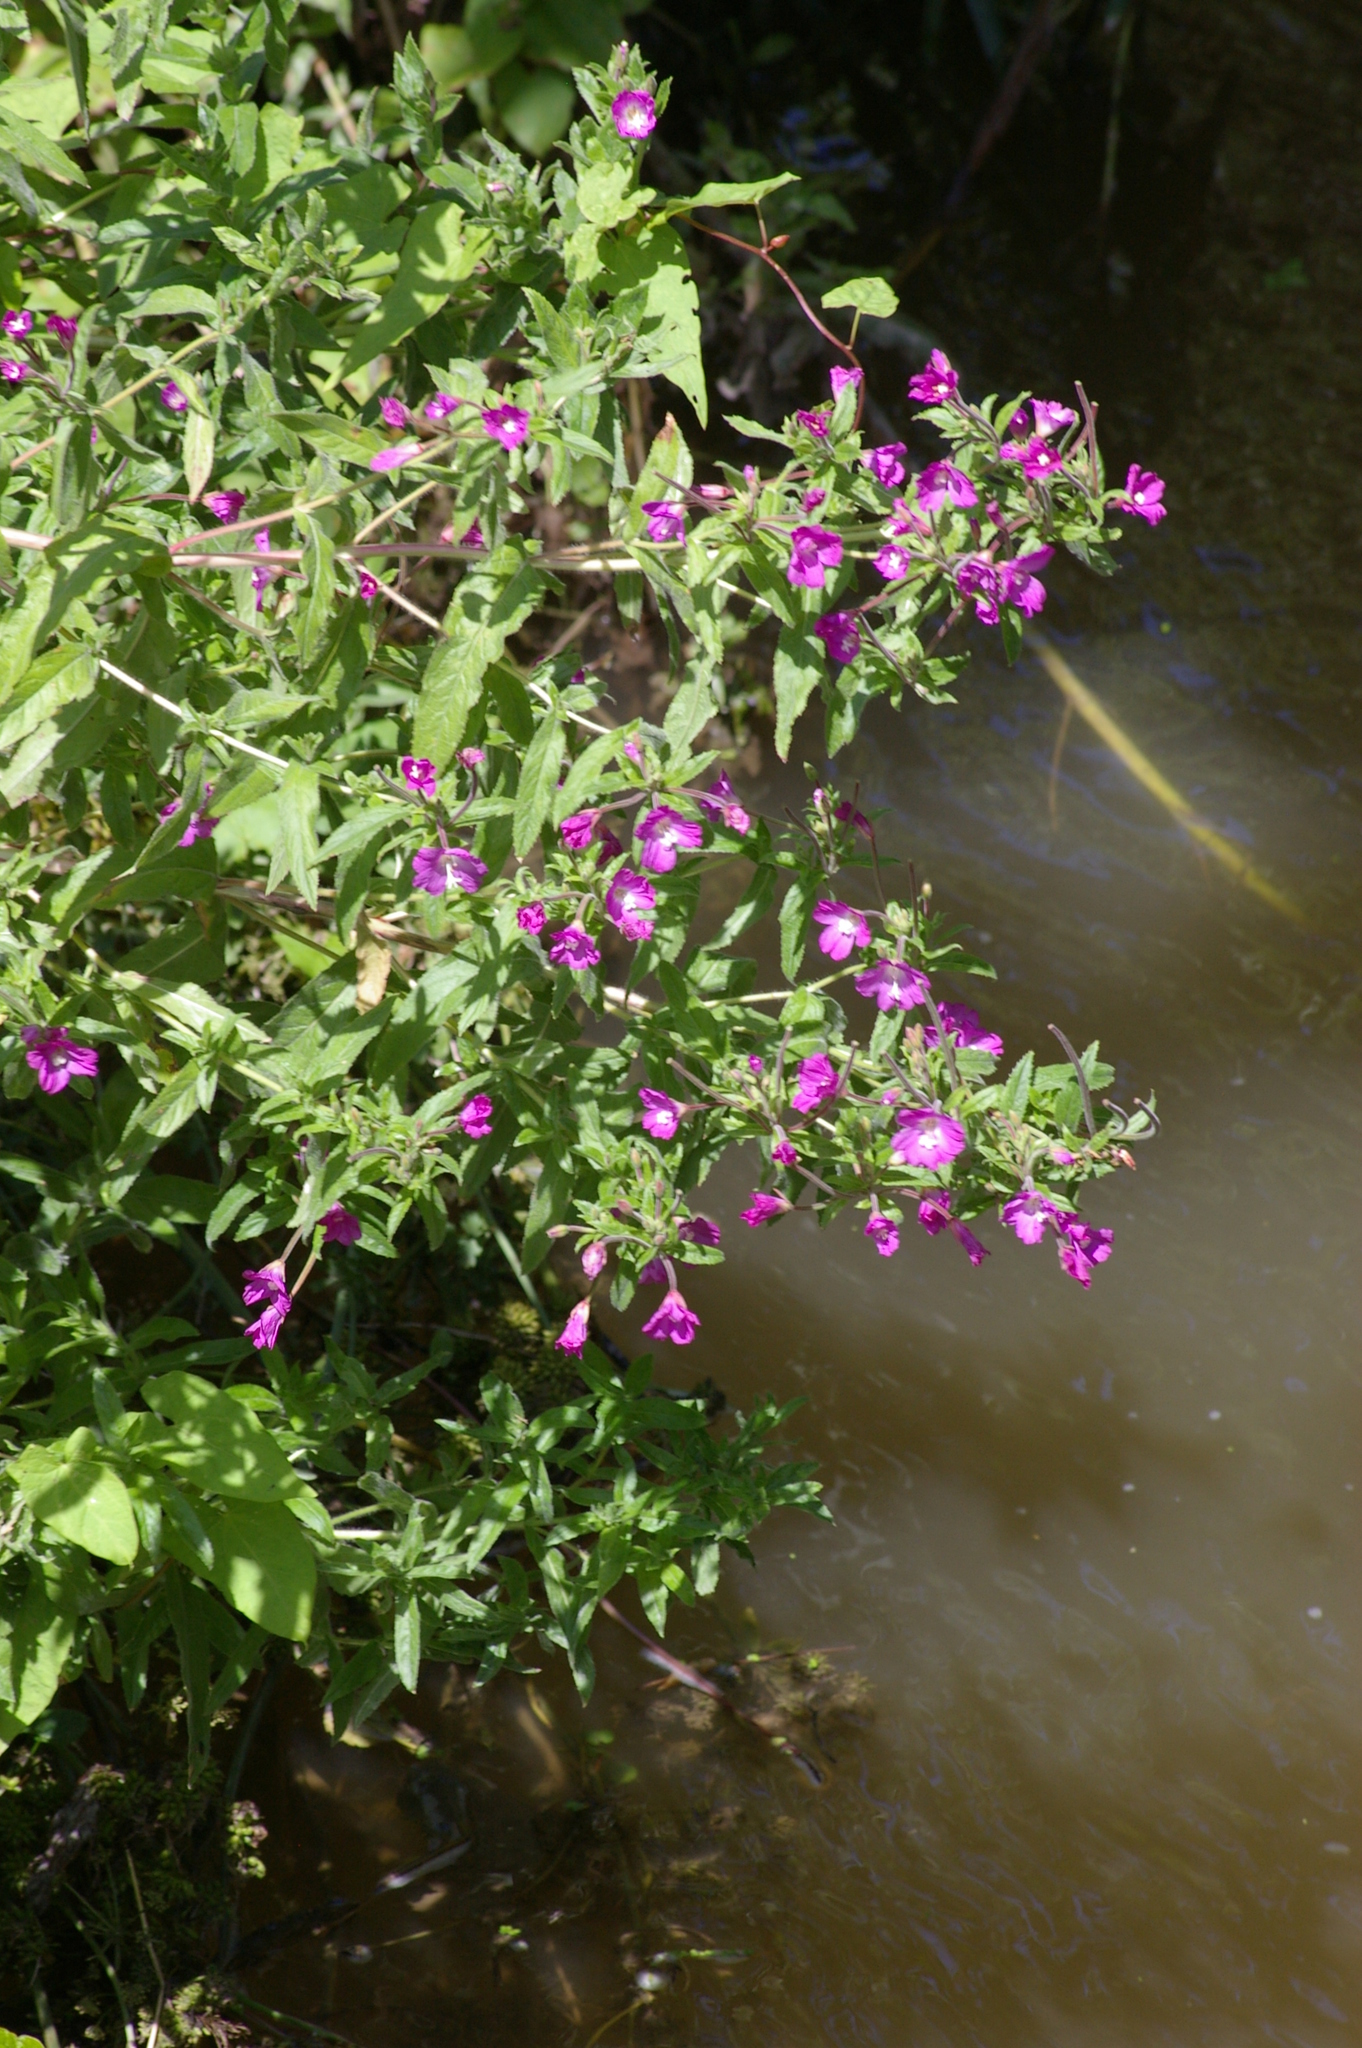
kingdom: Plantae
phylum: Tracheophyta
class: Magnoliopsida
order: Myrtales
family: Onagraceae
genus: Epilobium
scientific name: Epilobium hirsutum
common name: Great willowherb
